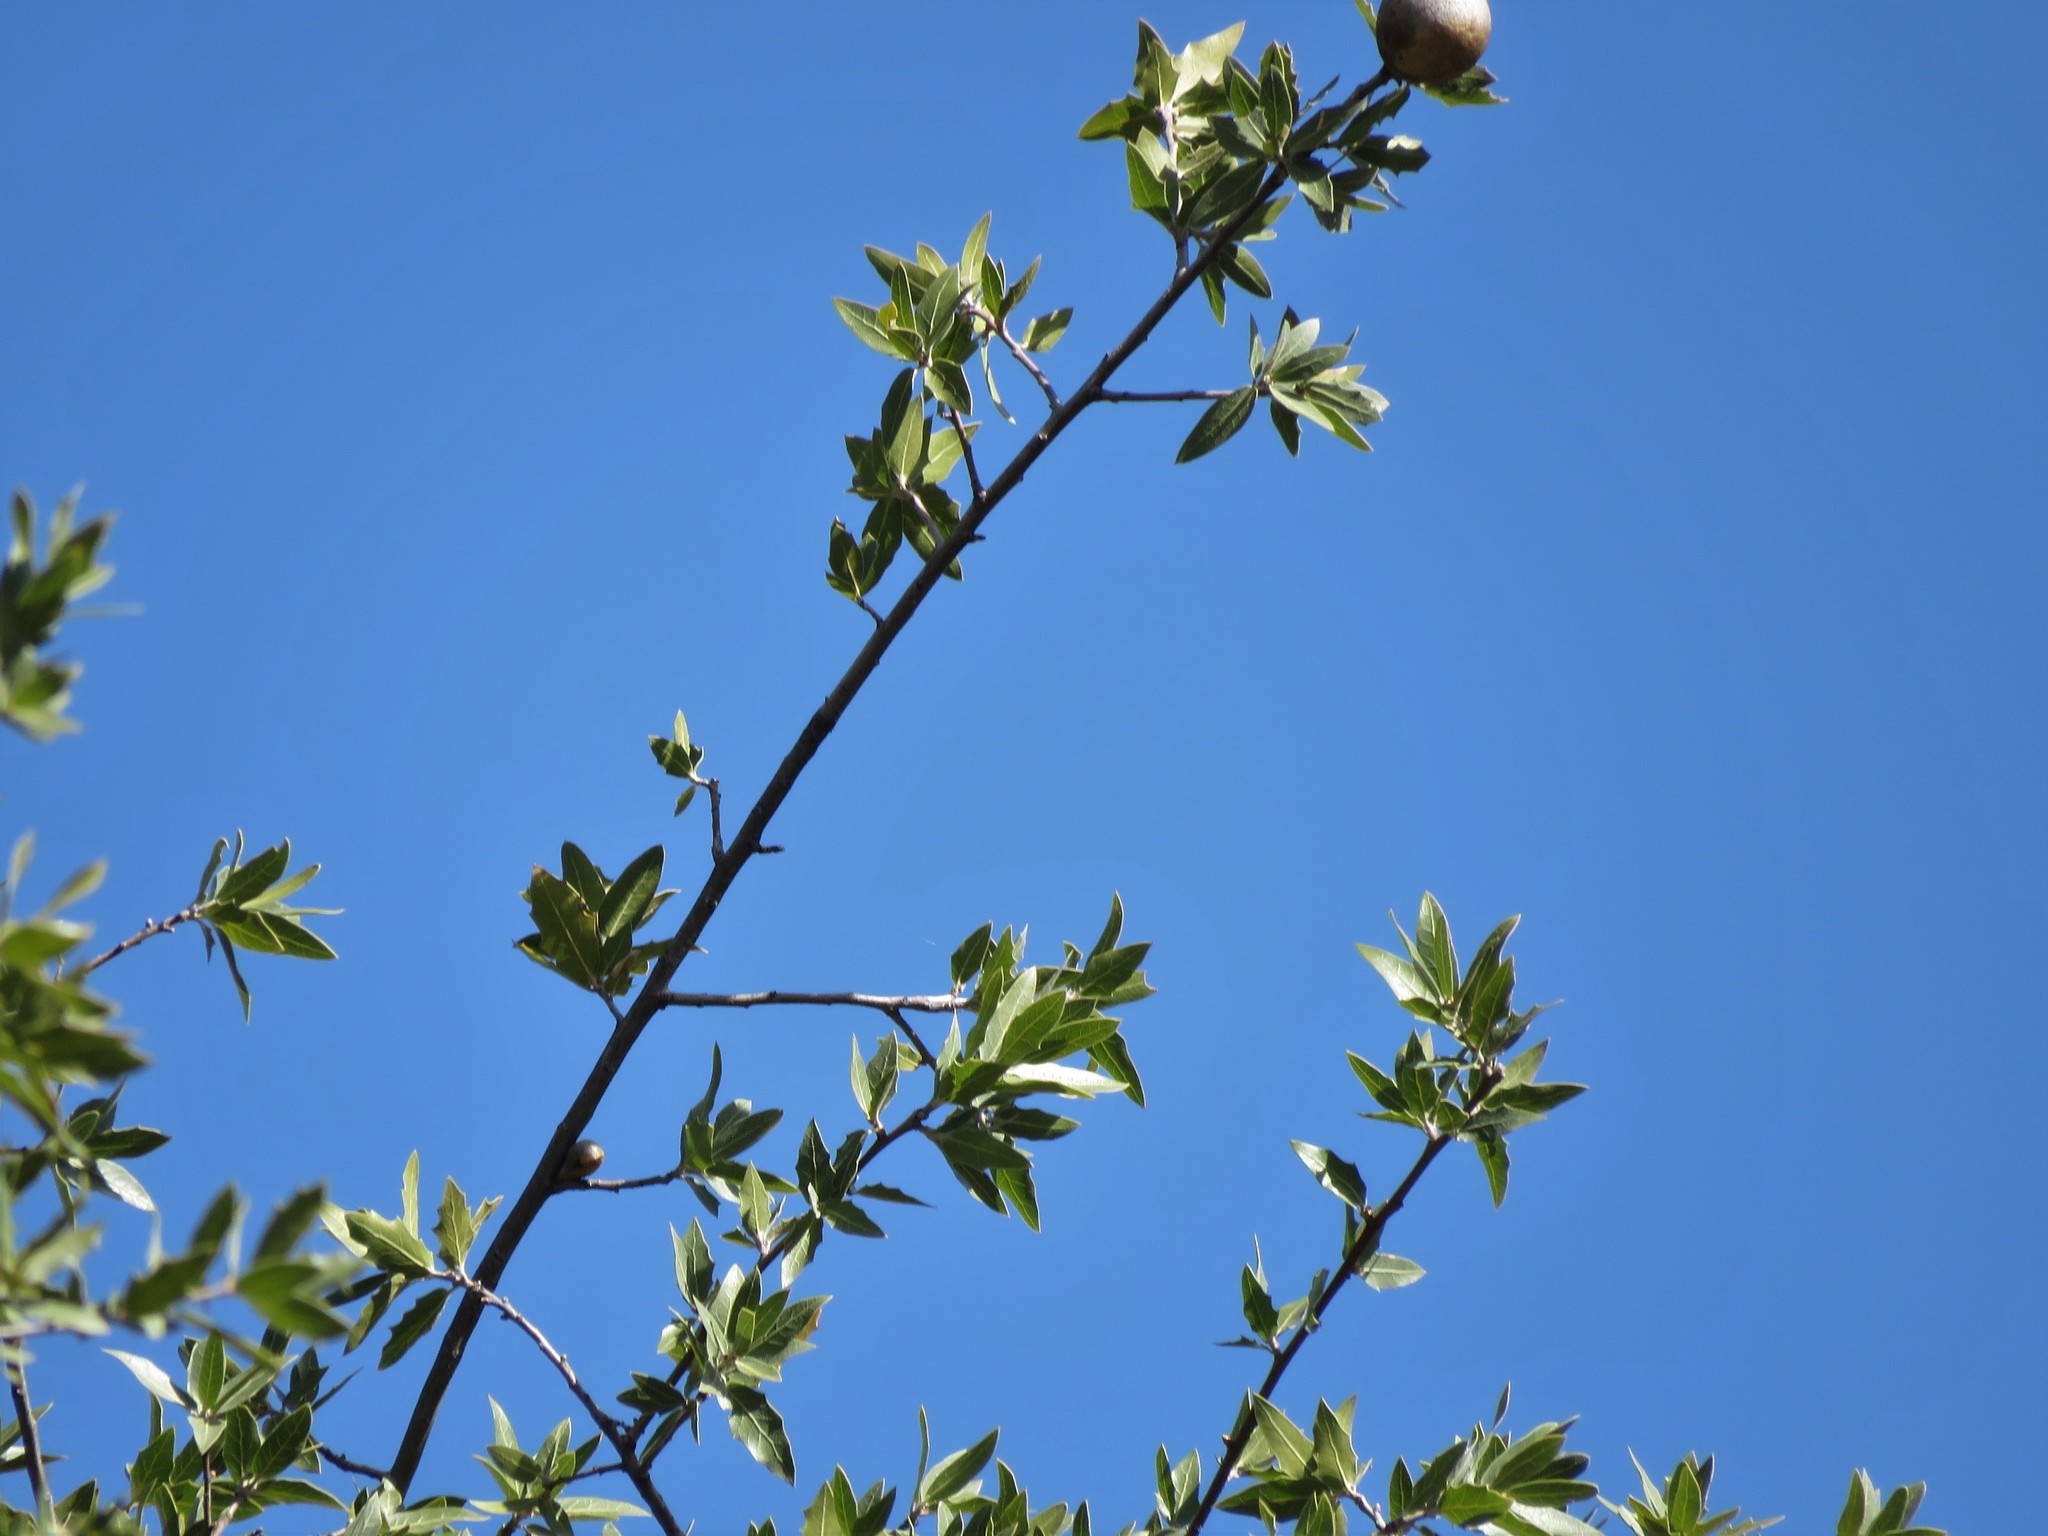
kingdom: Plantae
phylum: Tracheophyta
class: Magnoliopsida
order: Fagales
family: Fagaceae
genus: Quercus
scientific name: Quercus emoryi
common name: Emory oak
